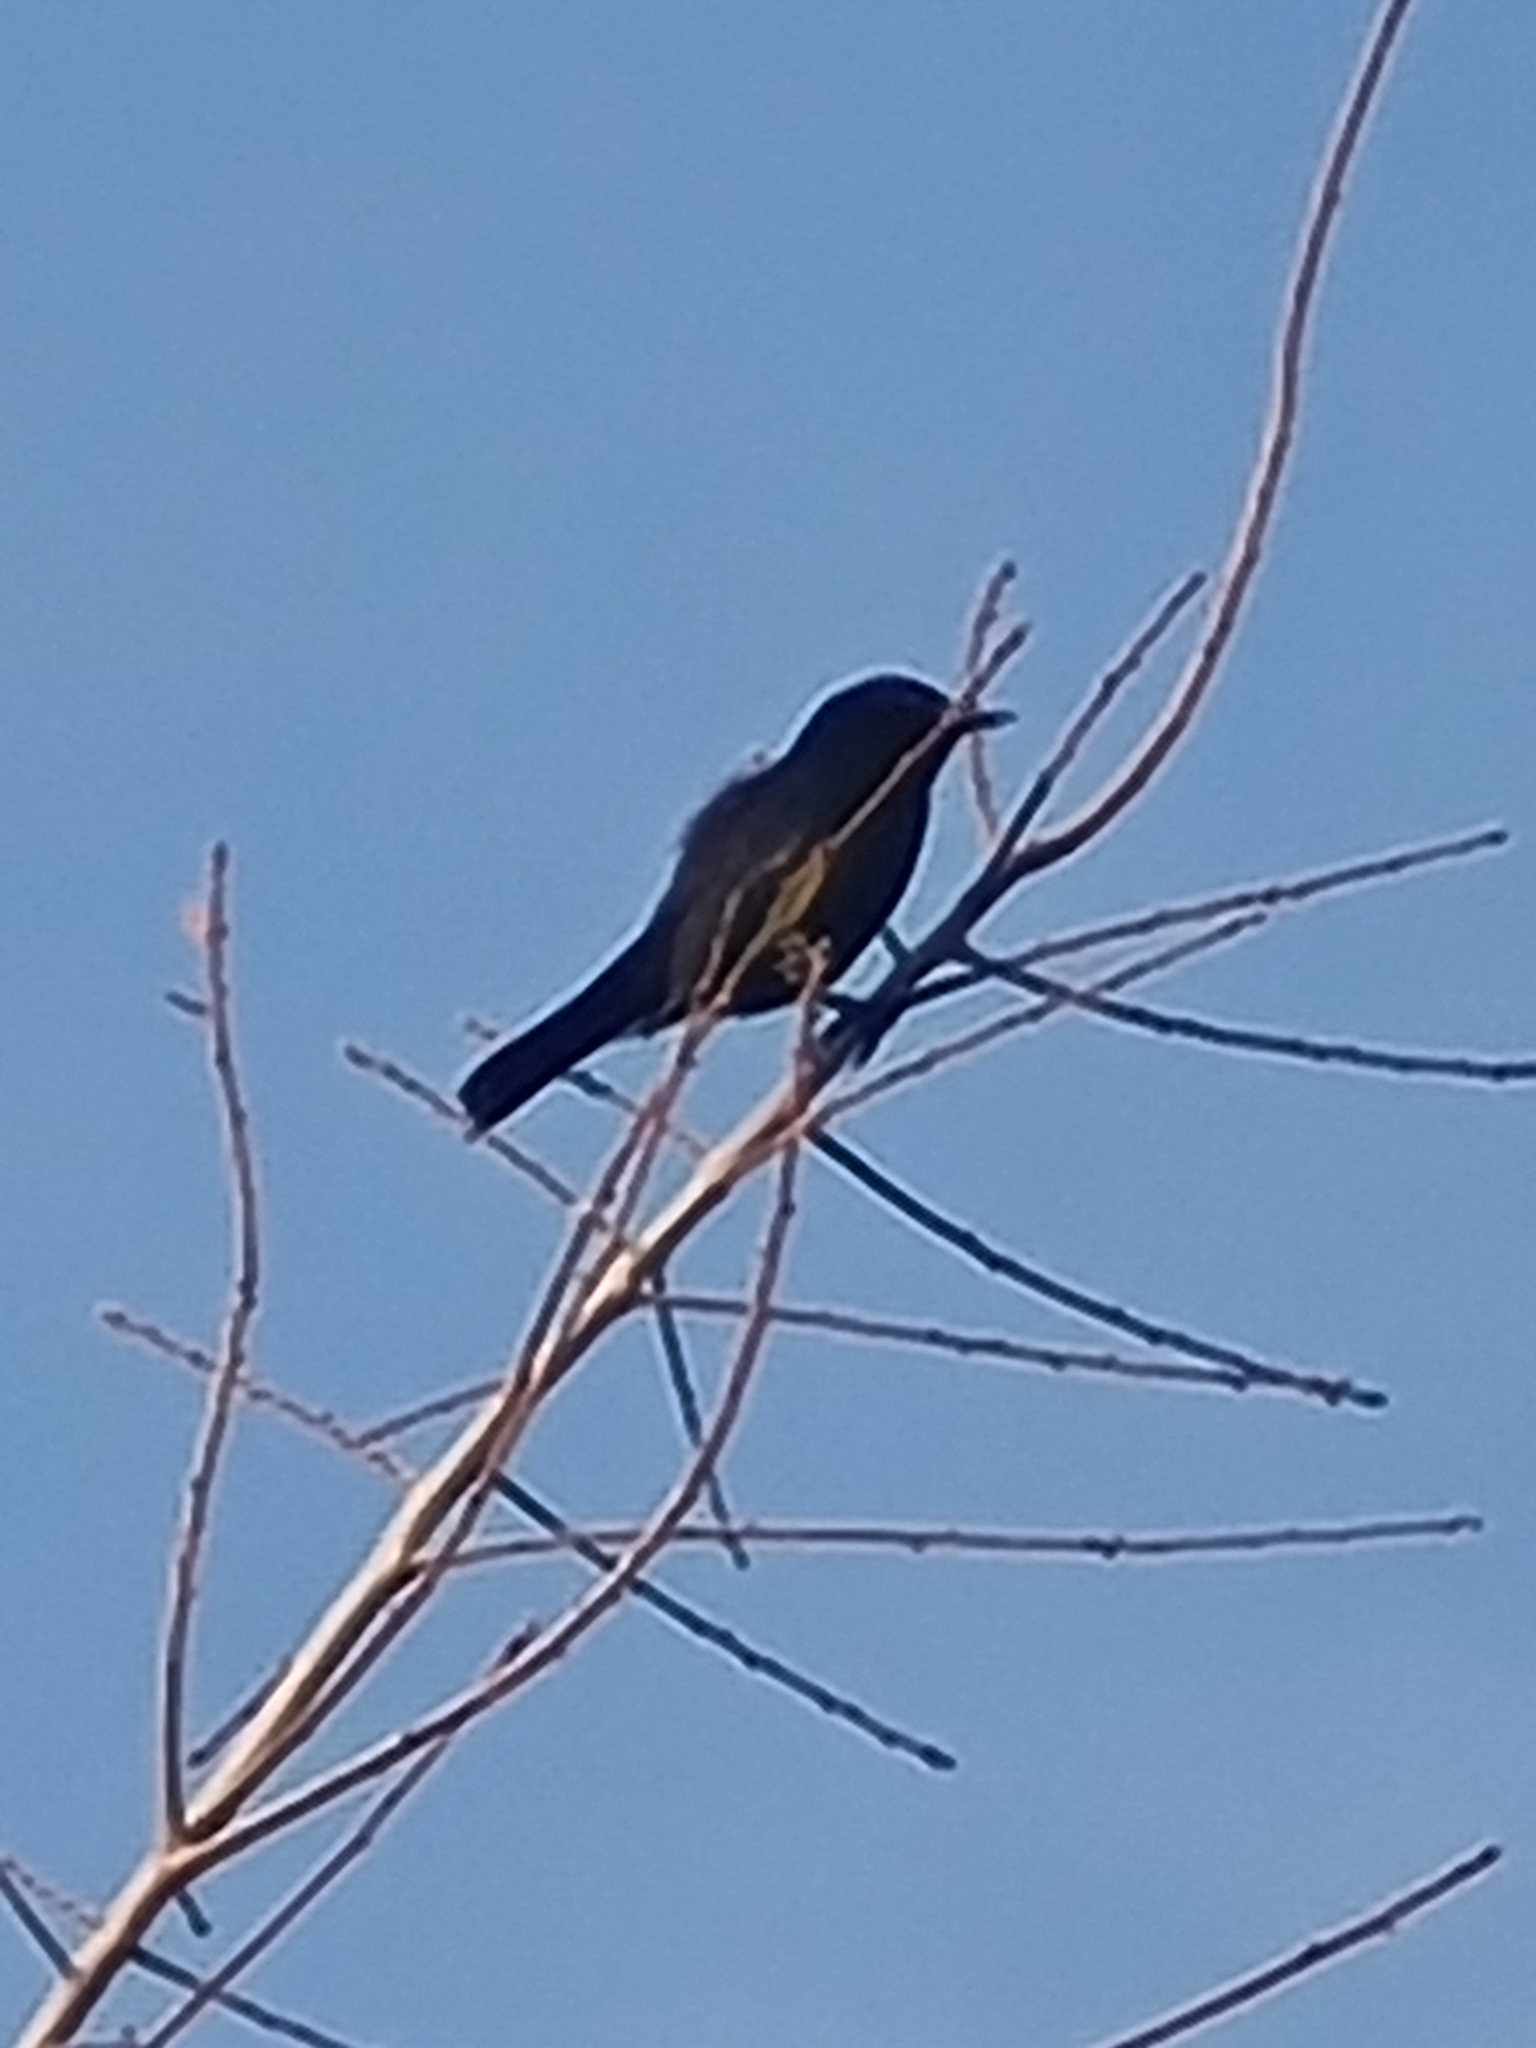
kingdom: Animalia
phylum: Chordata
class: Aves
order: Passeriformes
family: Icteridae
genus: Curaeus
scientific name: Curaeus curaeus
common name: Austral blackbird
